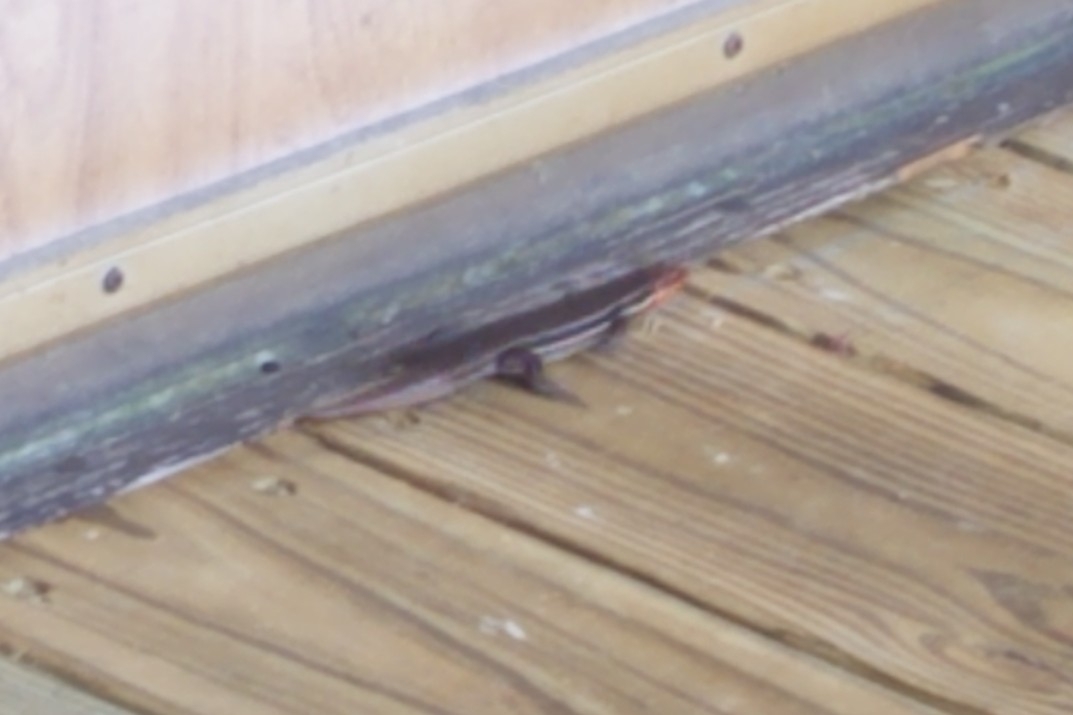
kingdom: Animalia
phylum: Chordata
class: Squamata
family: Scincidae
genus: Plestiodon
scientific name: Plestiodon inexpectatus
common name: Southeastern five-lined skink
